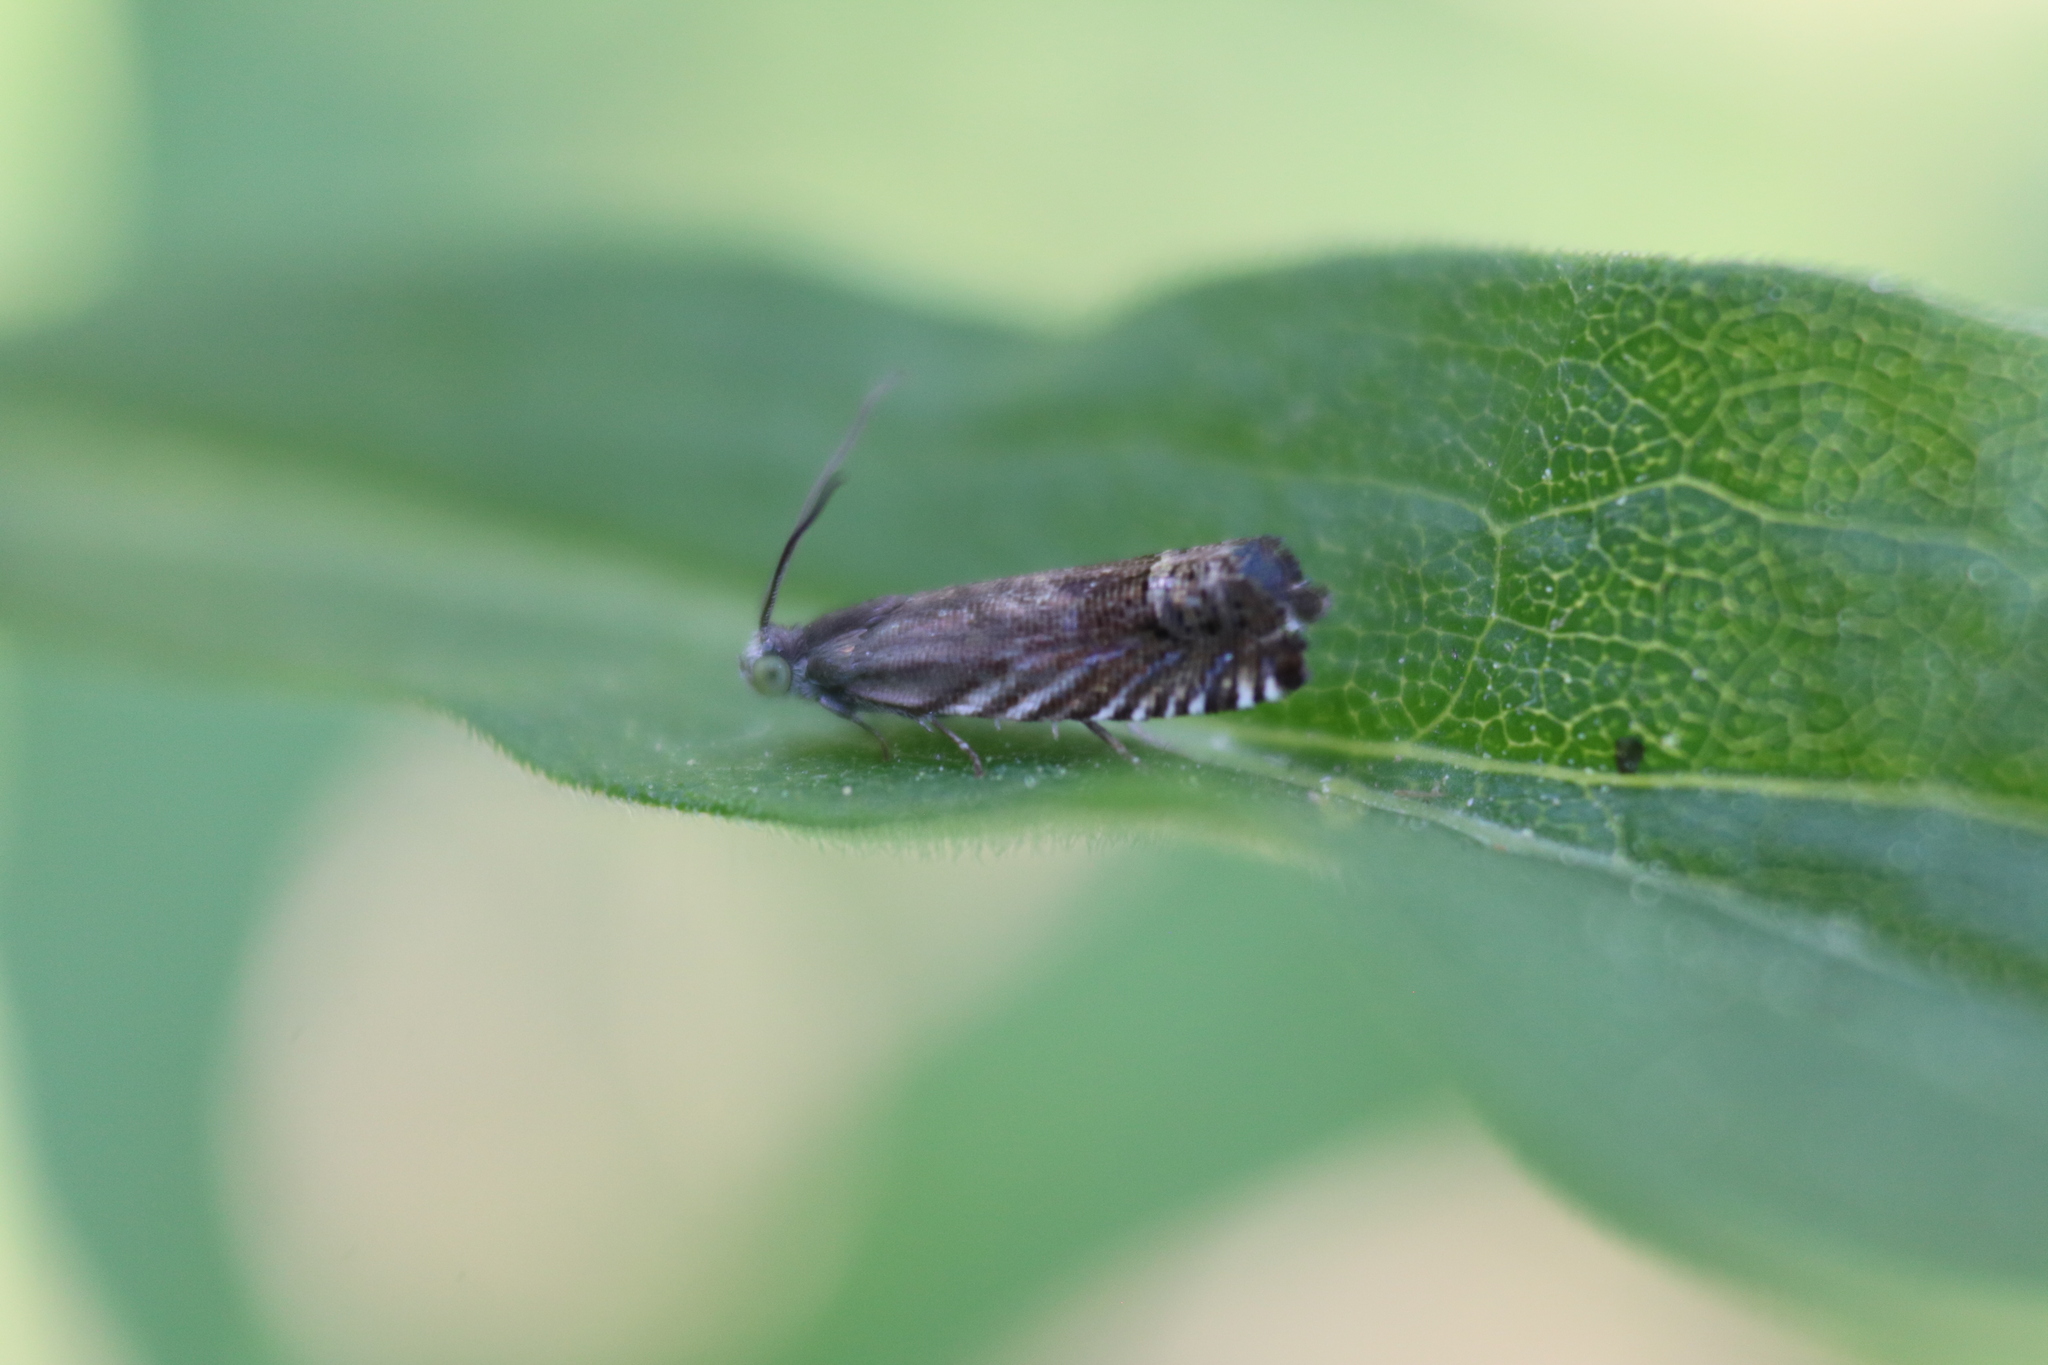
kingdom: Animalia
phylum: Arthropoda
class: Insecta
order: Lepidoptera
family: Tortricidae
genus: Grapholita
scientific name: Grapholita interstinctana
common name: Clover head caterpillar moth
